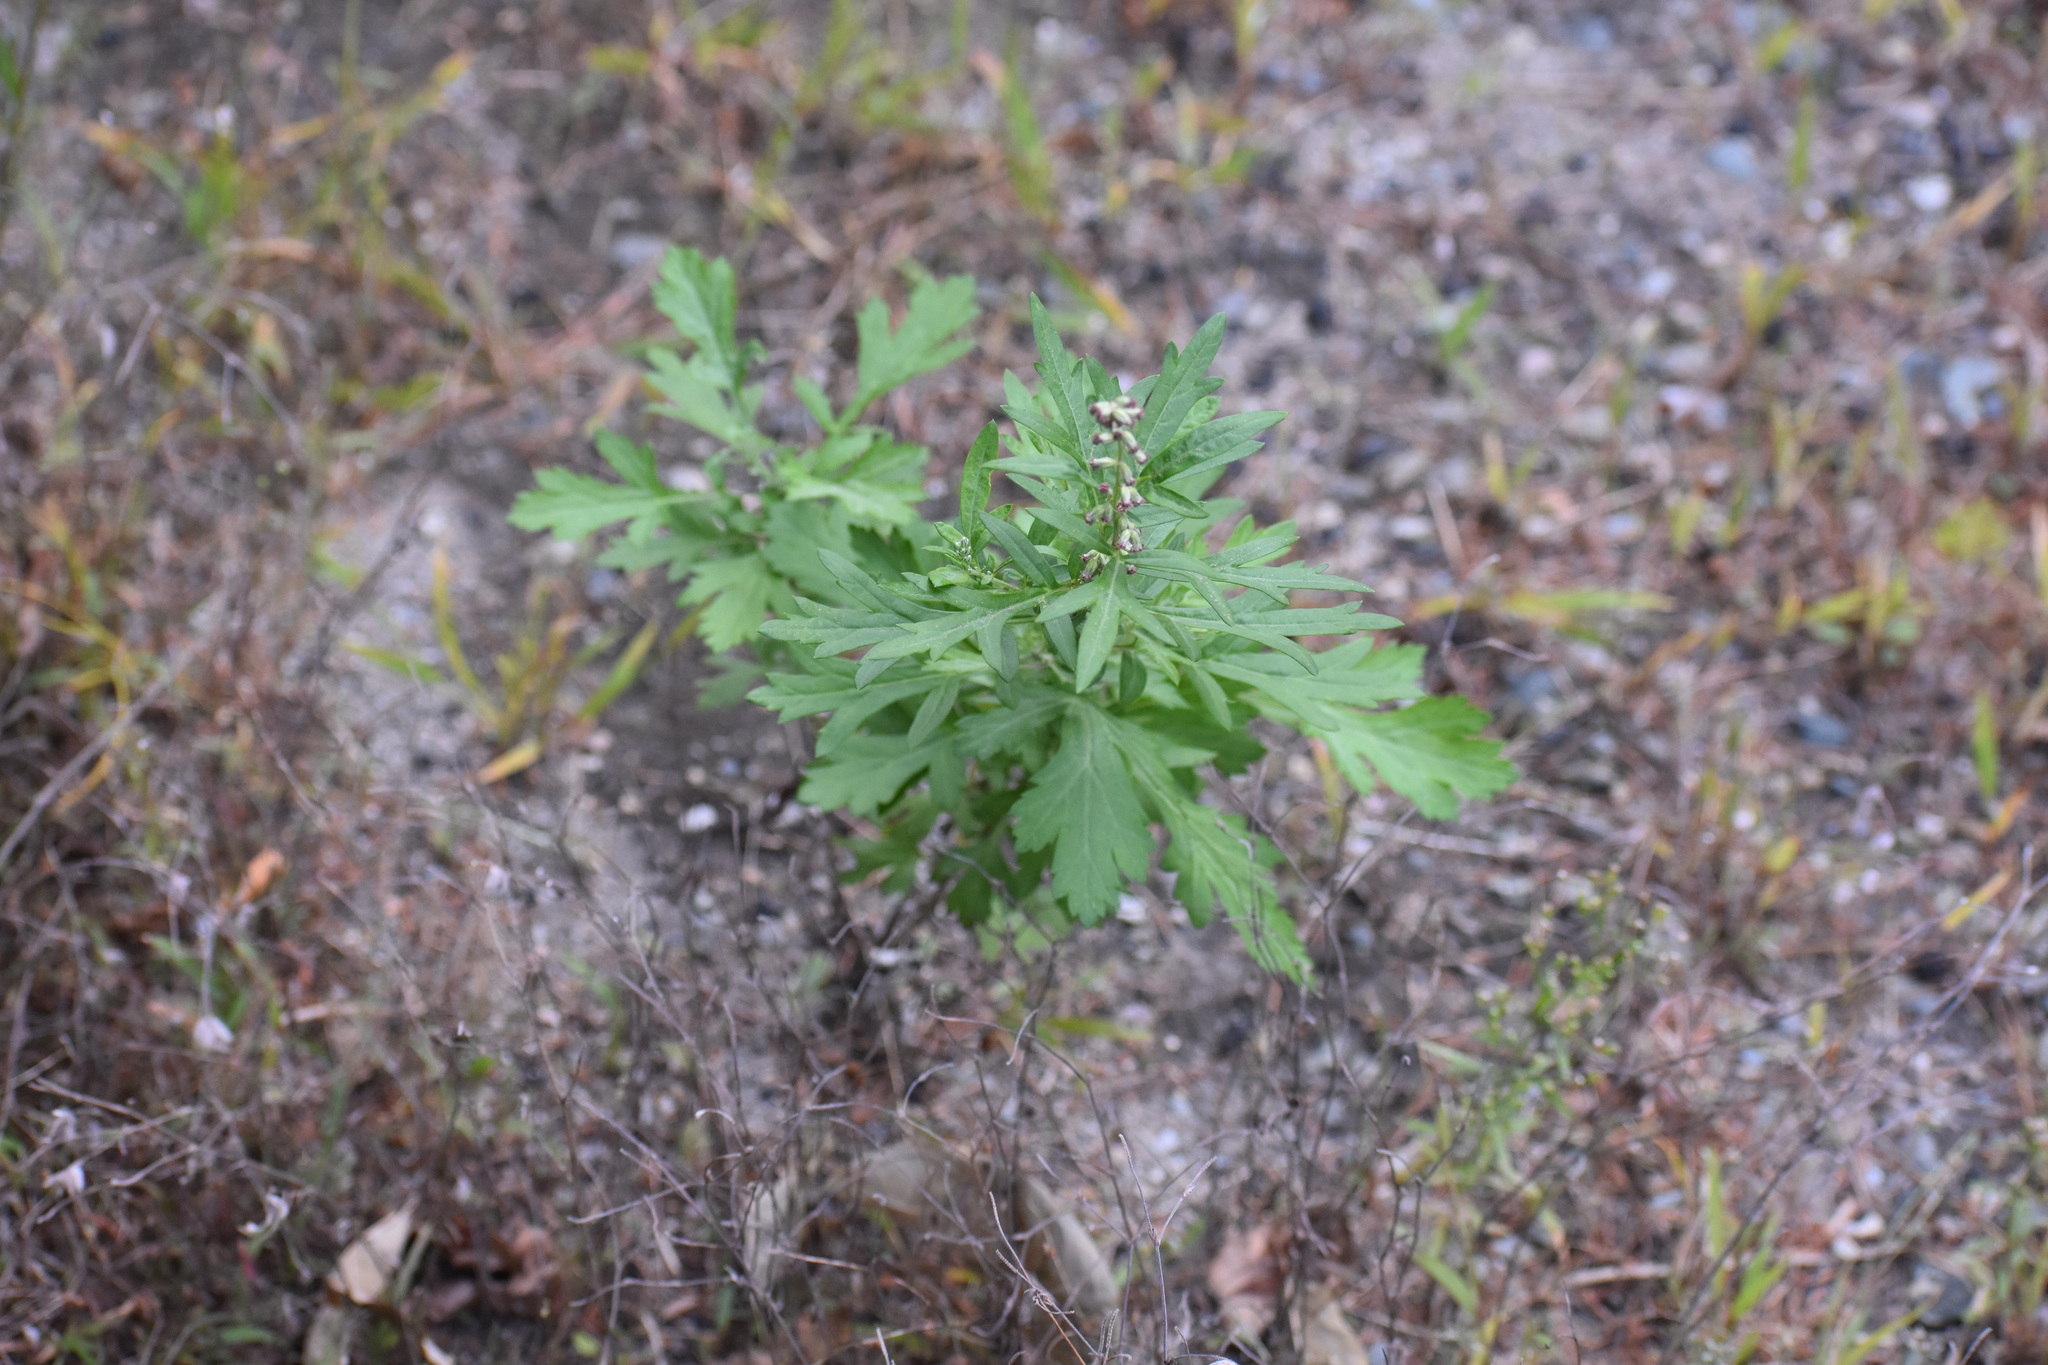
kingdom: Plantae
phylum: Tracheophyta
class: Magnoliopsida
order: Asterales
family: Asteraceae
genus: Artemisia
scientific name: Artemisia vulgaris
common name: Mugwort
